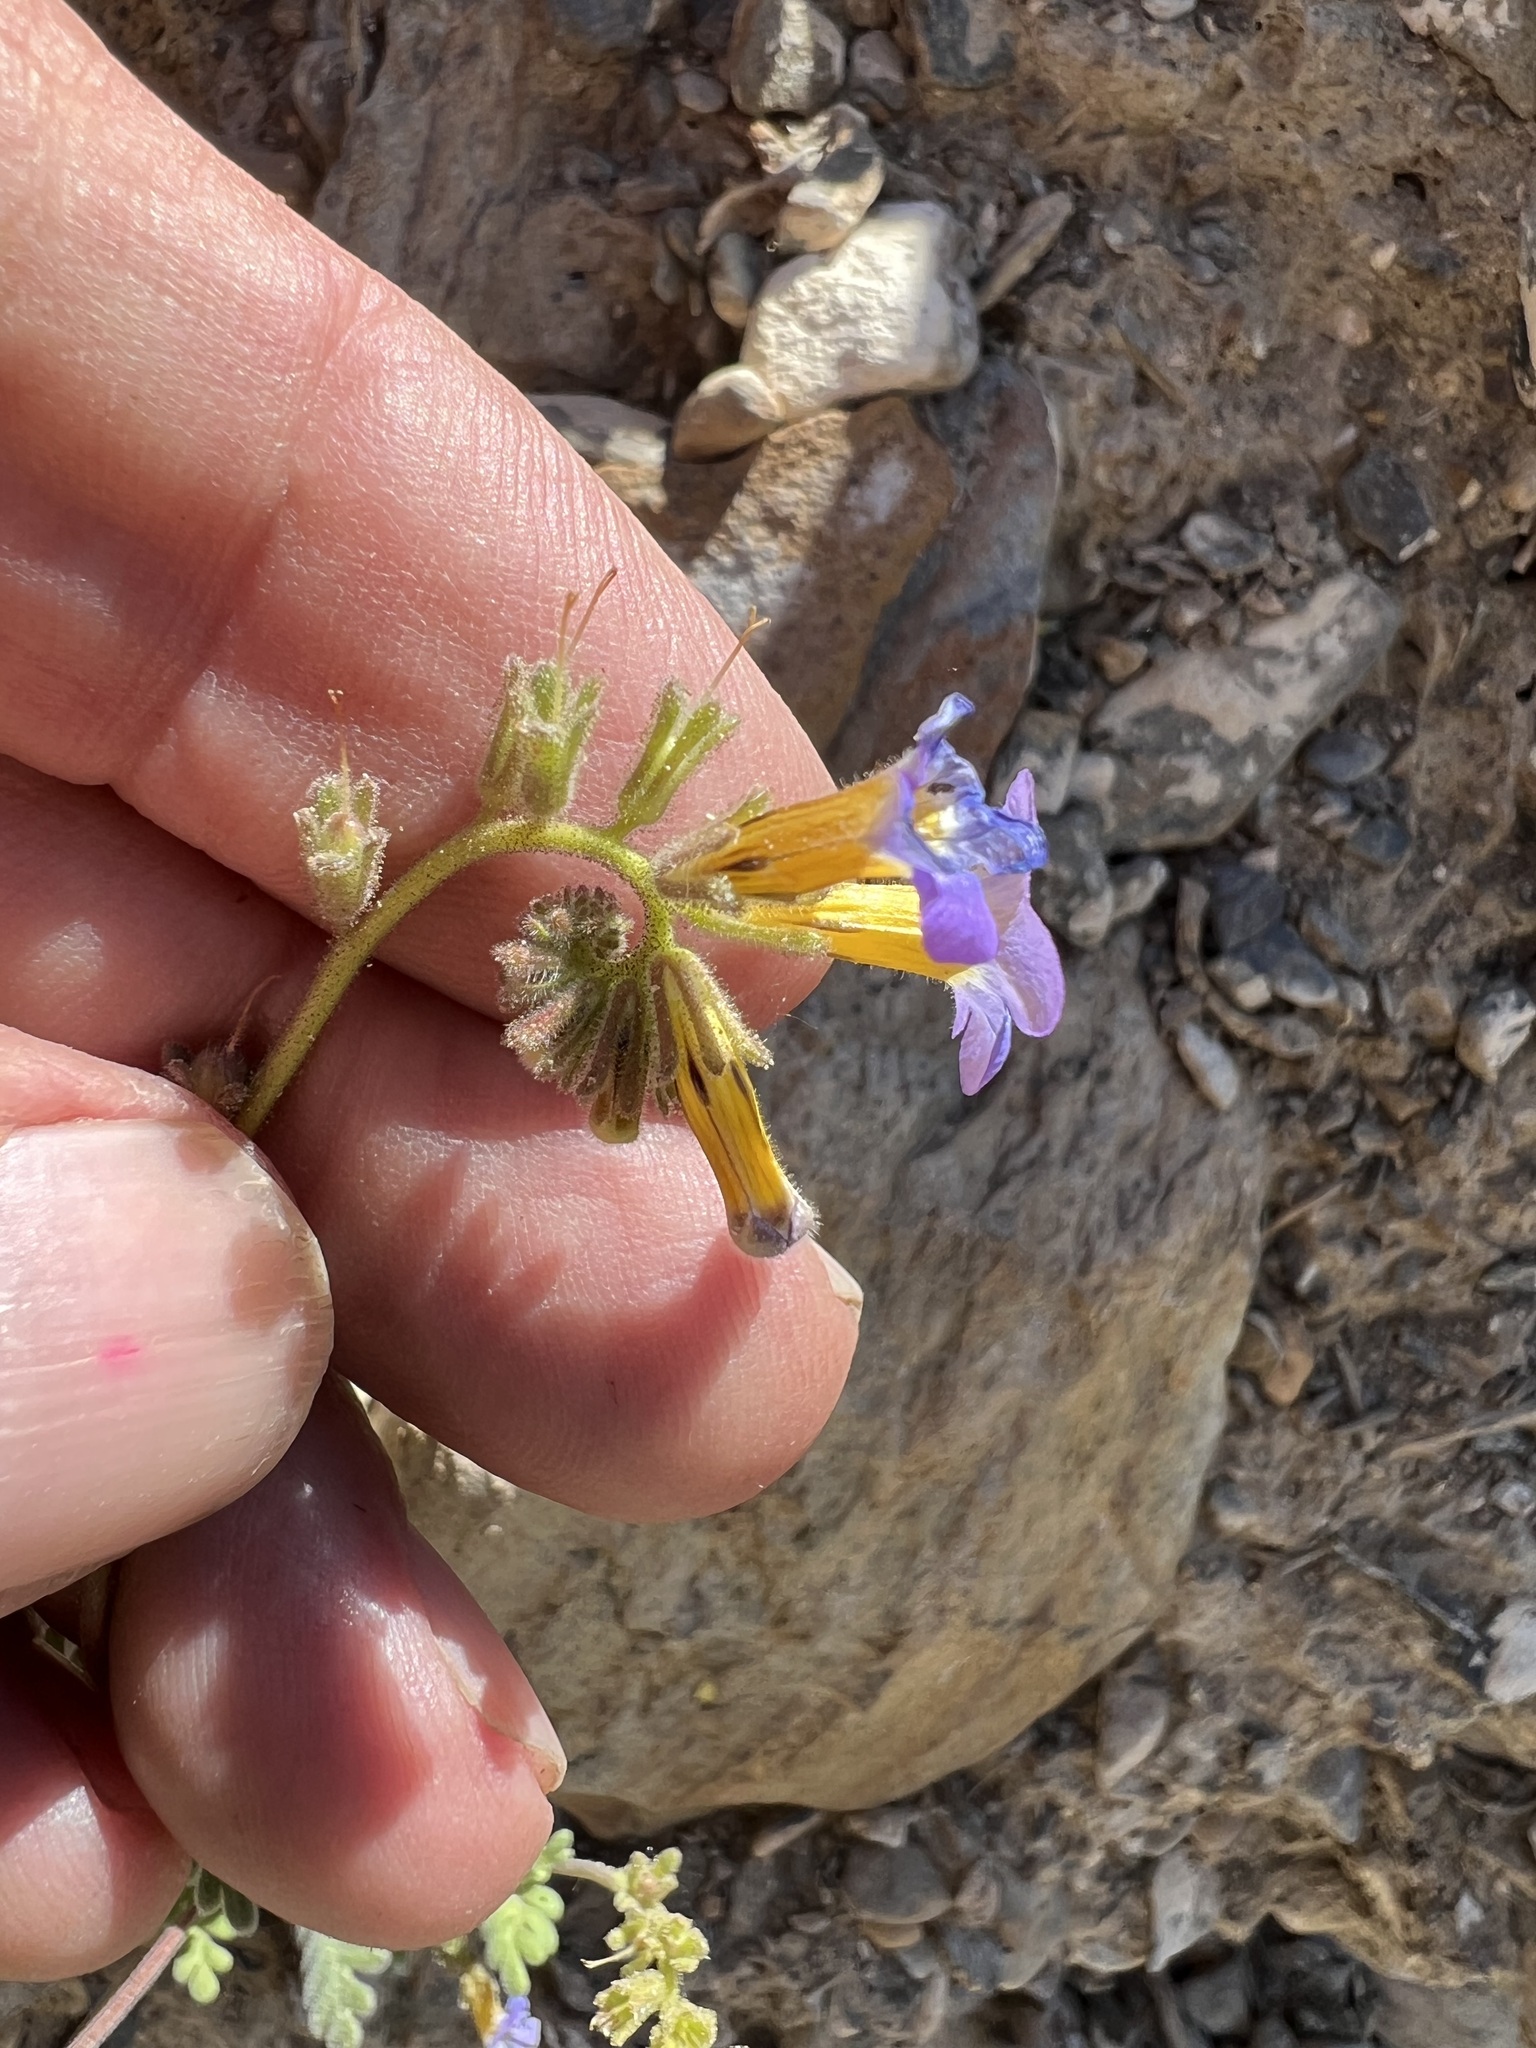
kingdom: Plantae
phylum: Tracheophyta
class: Magnoliopsida
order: Boraginales
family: Hydrophyllaceae
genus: Phacelia
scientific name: Phacelia fremontii
